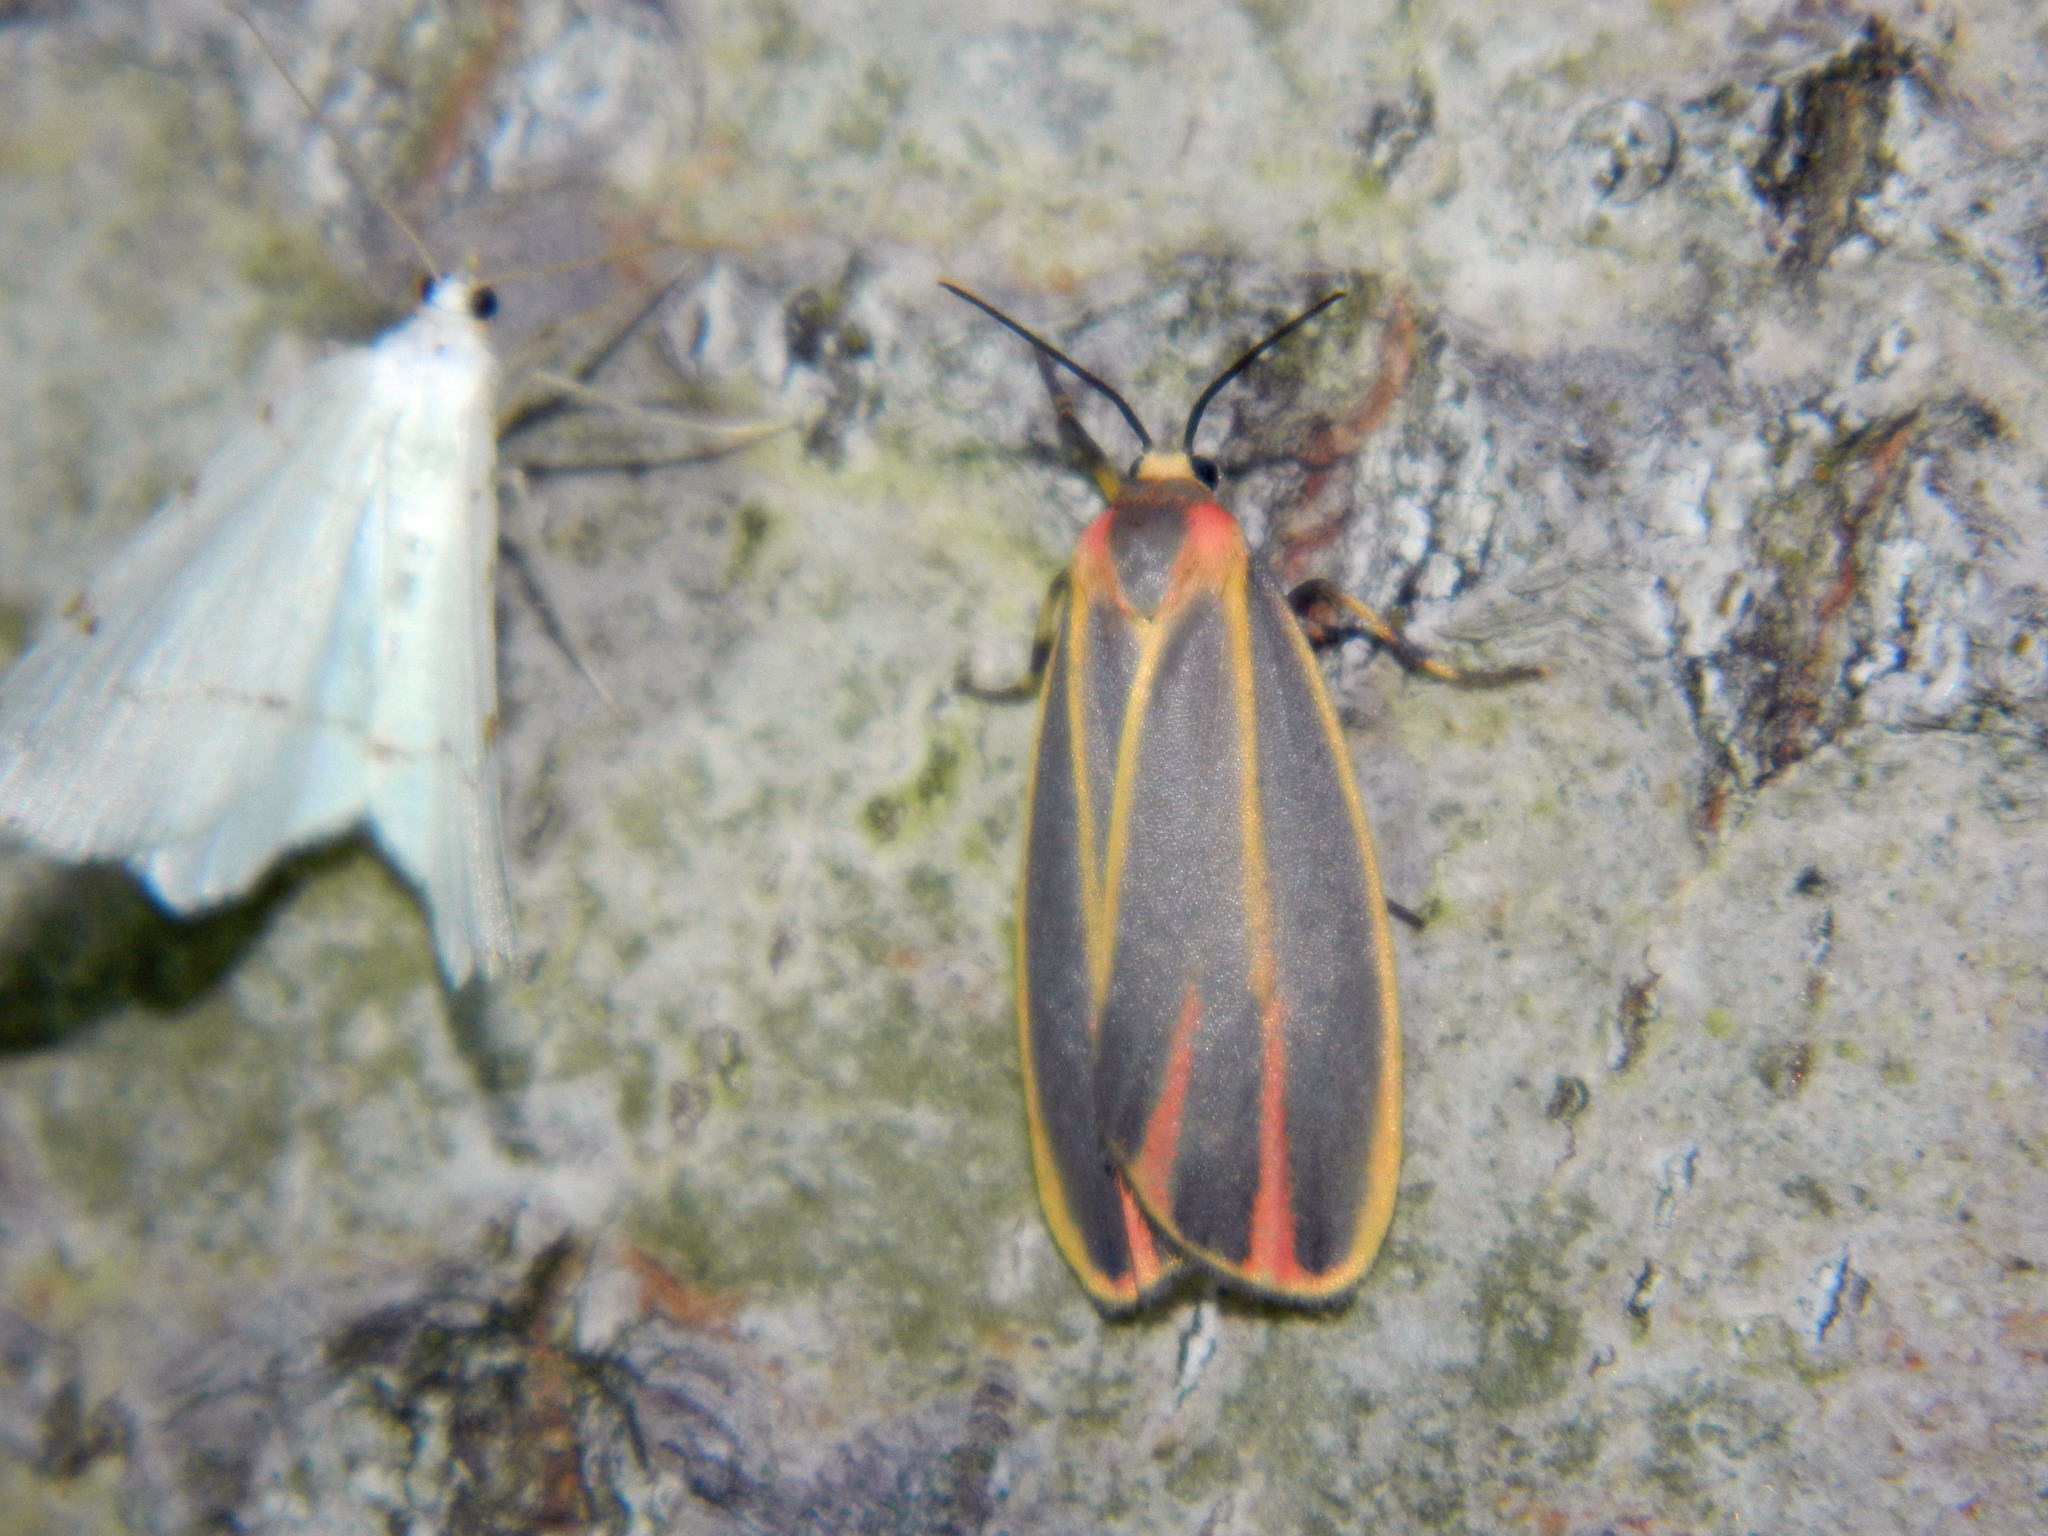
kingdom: Animalia
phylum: Arthropoda
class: Insecta
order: Lepidoptera
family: Erebidae
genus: Hypoprepia
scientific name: Hypoprepia fucosa
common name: Painted lichen moth
